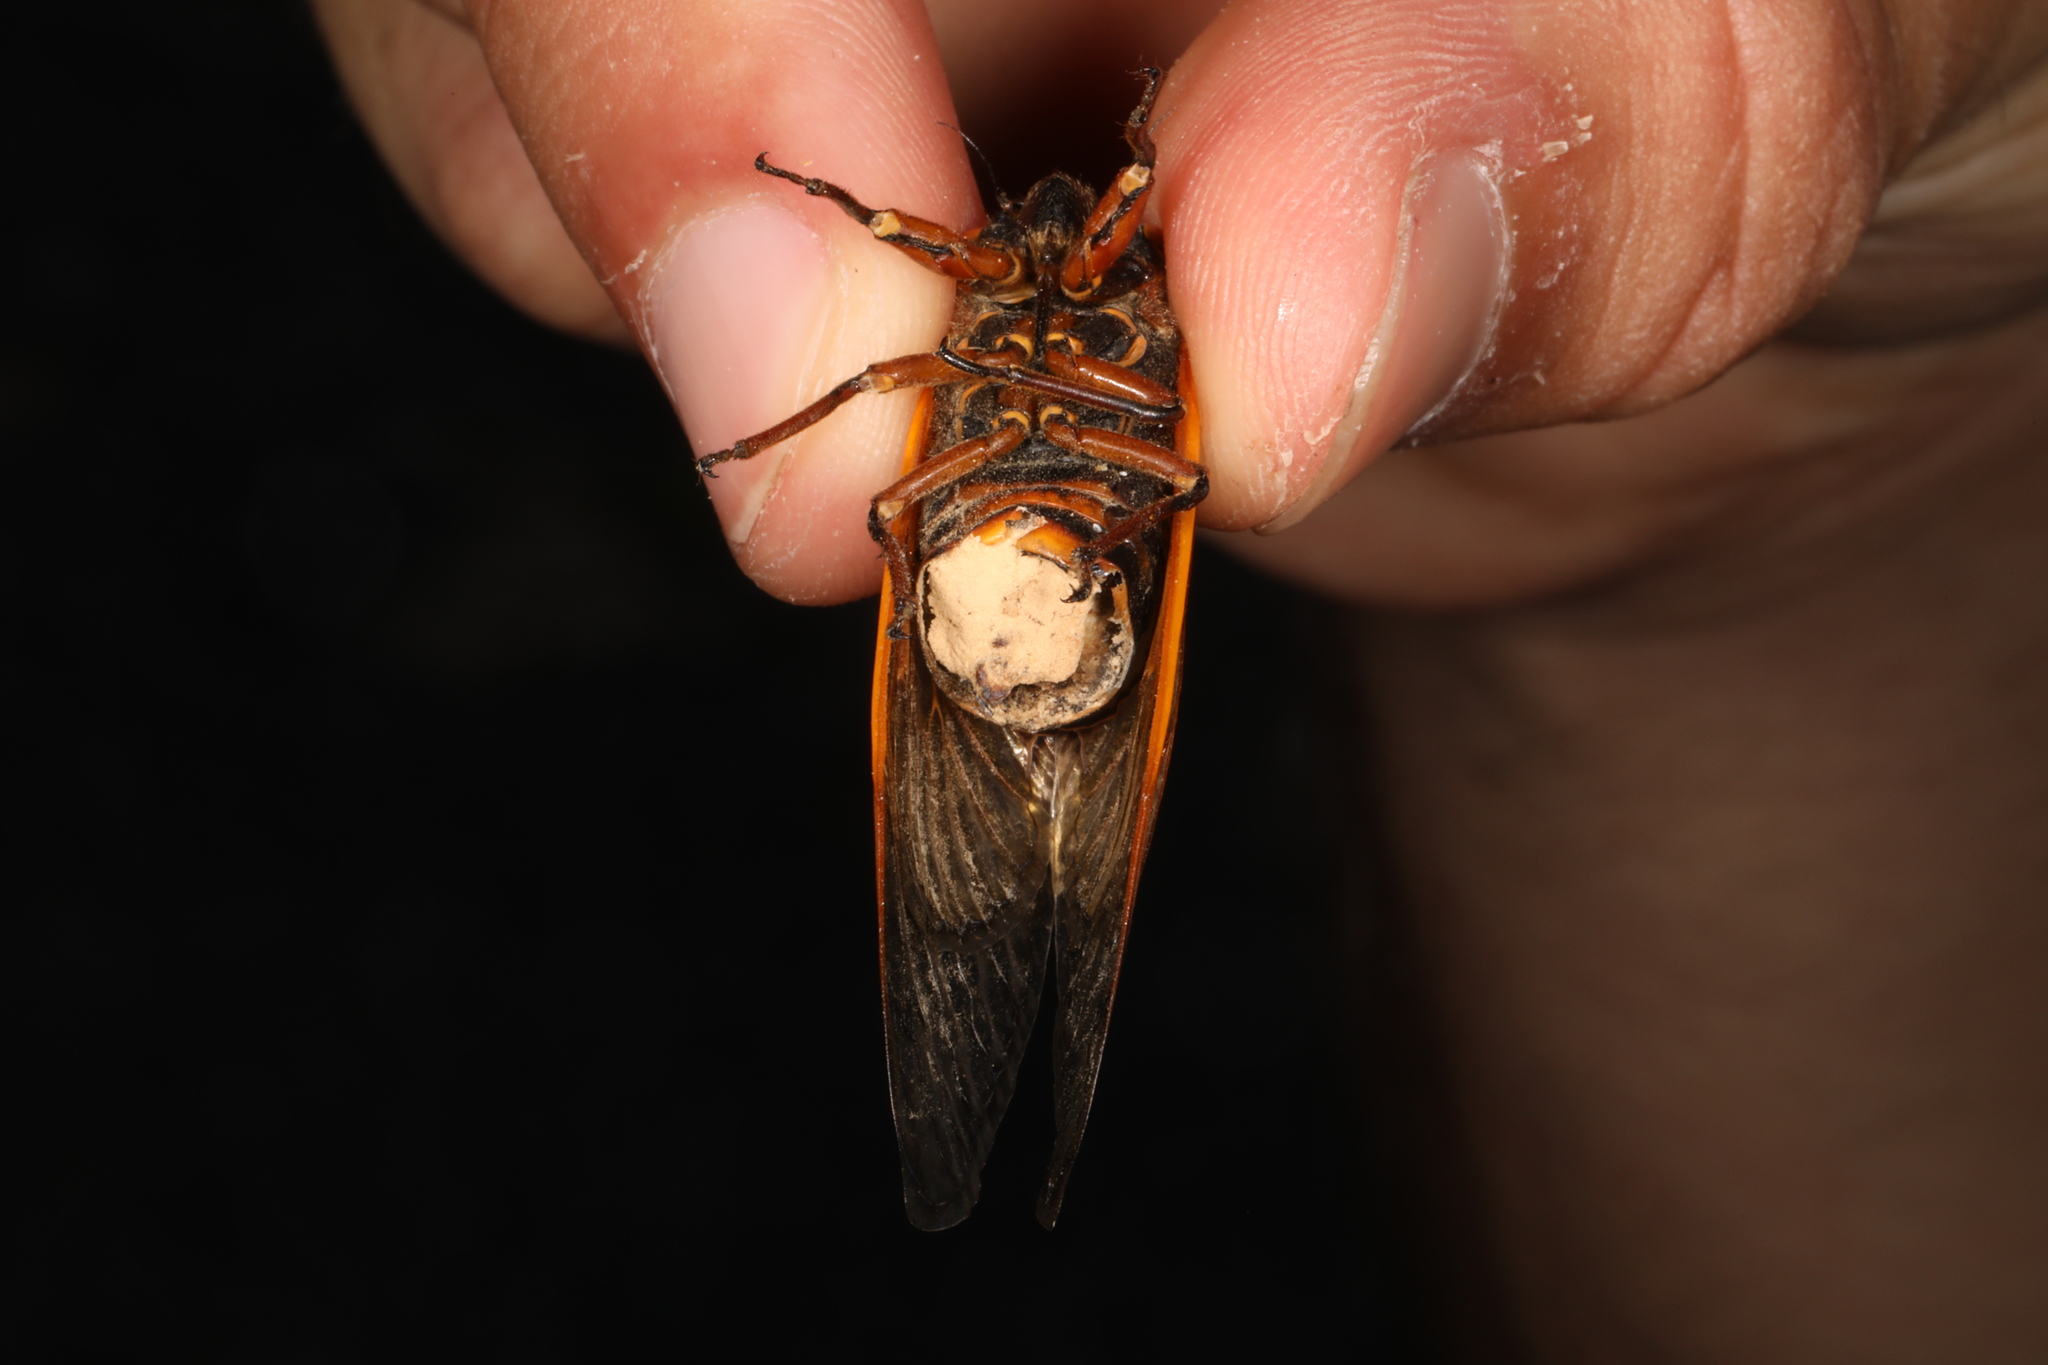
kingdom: Fungi
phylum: Entomophthoromycota
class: Entomophthoromycetes
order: Entomophthorales
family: Entomophthoraceae
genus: Massospora
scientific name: Massospora cicadina
